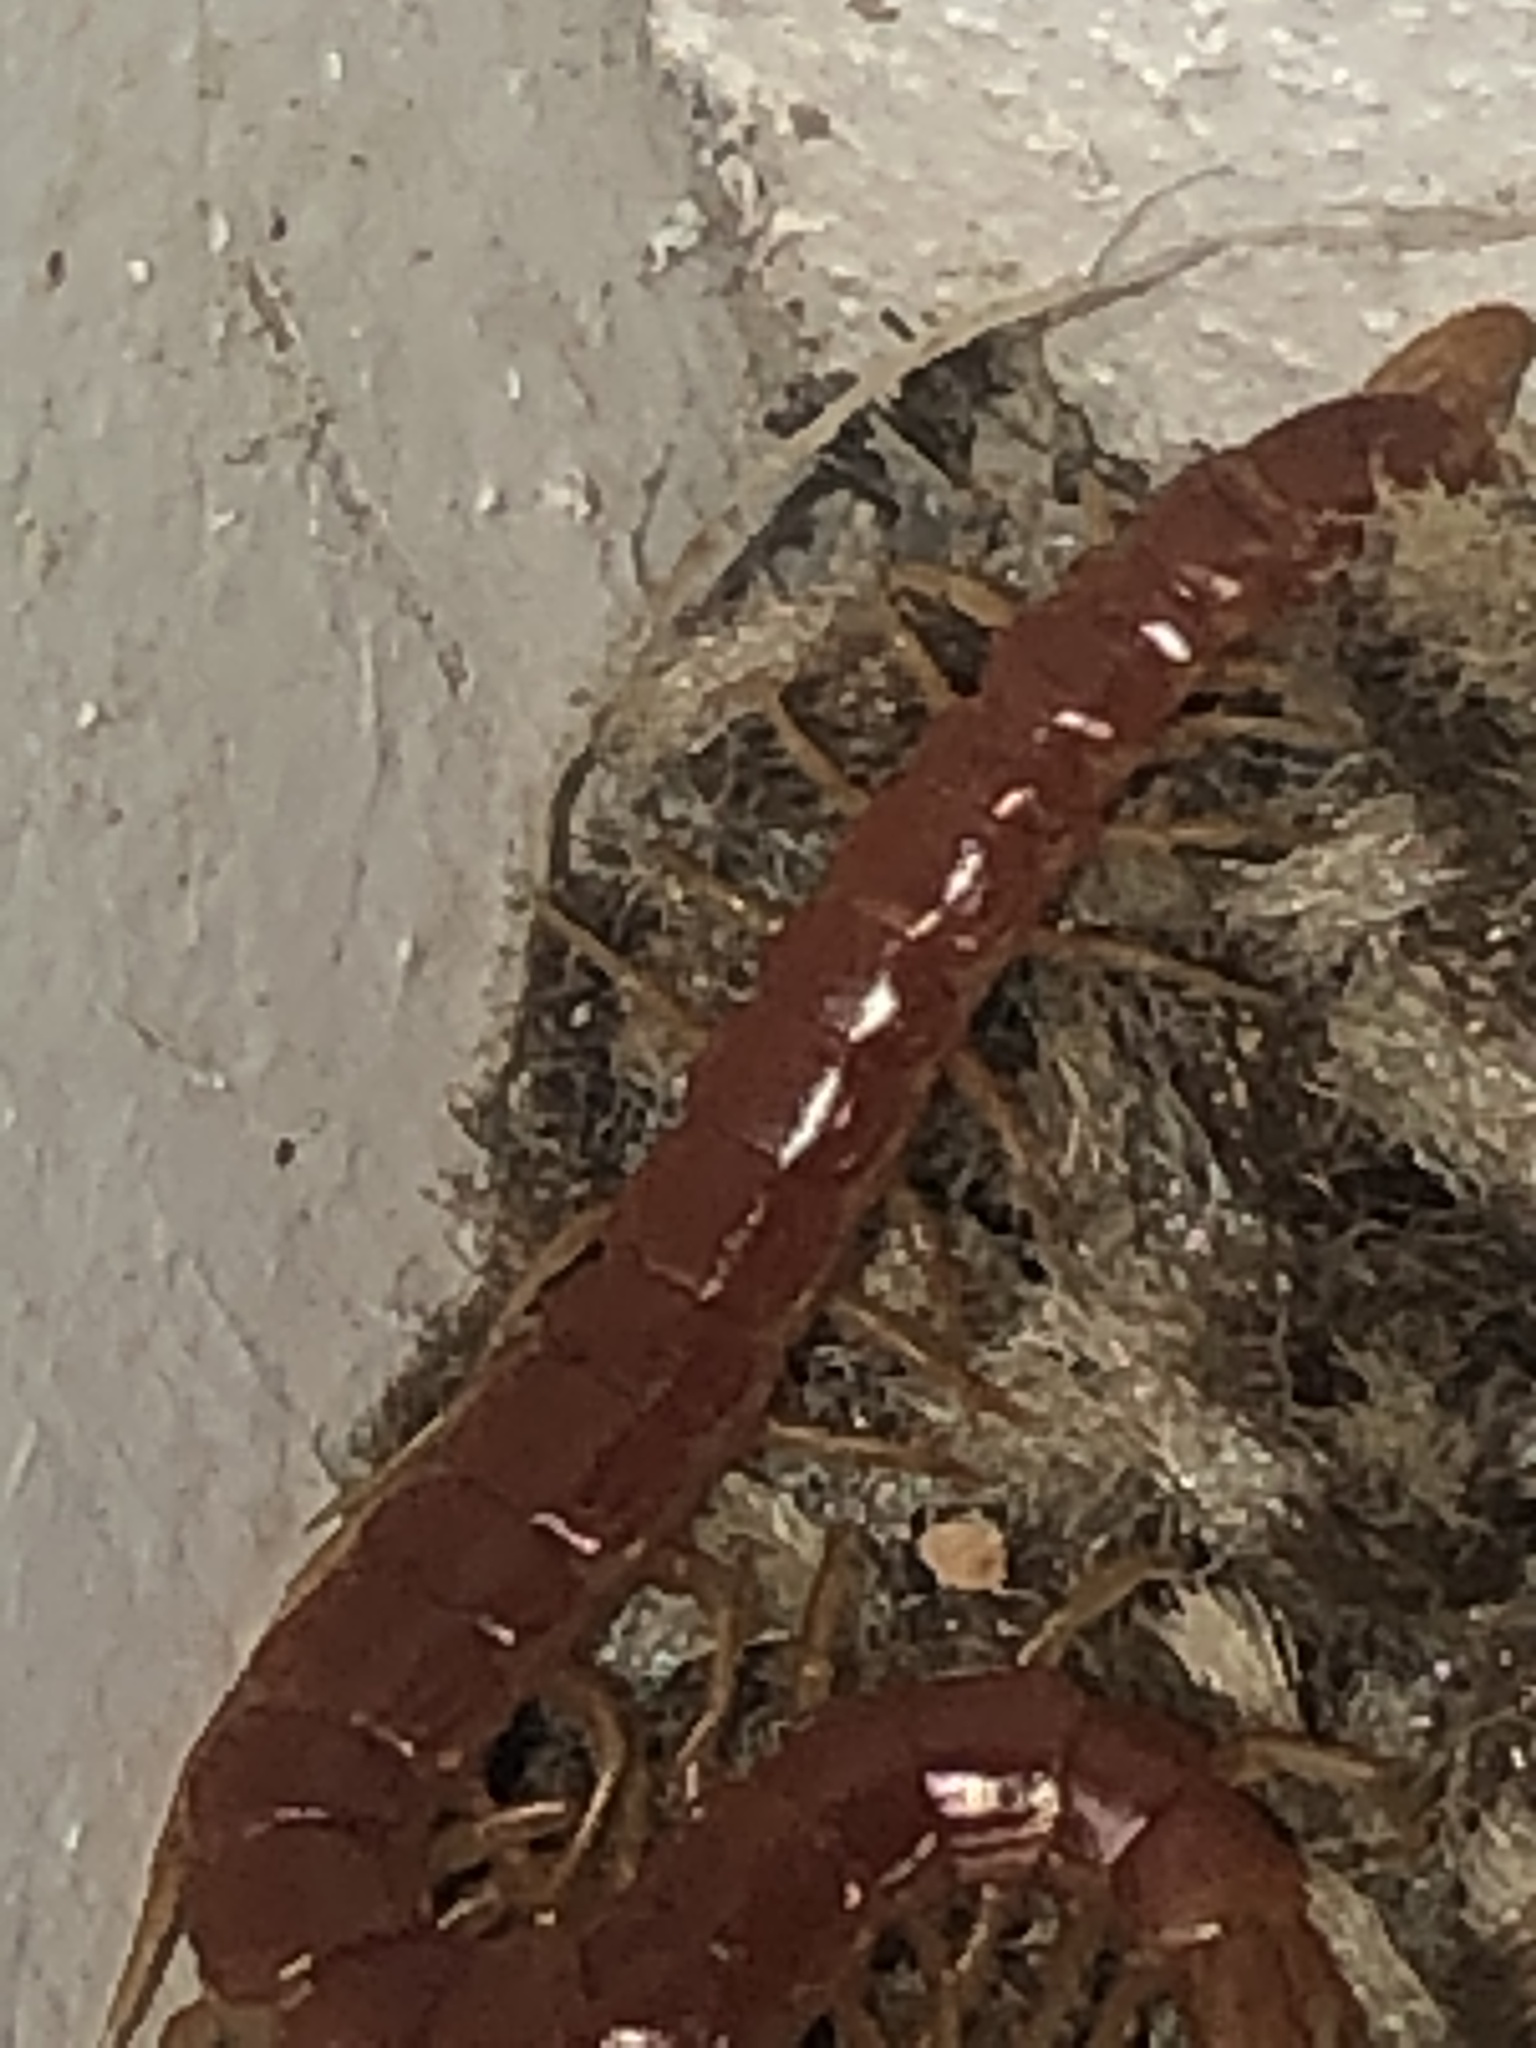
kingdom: Animalia
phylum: Arthropoda
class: Chilopoda
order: Scolopendromorpha
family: Scolopocryptopidae
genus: Scolopocryptops
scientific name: Scolopocryptops sexspinosus
